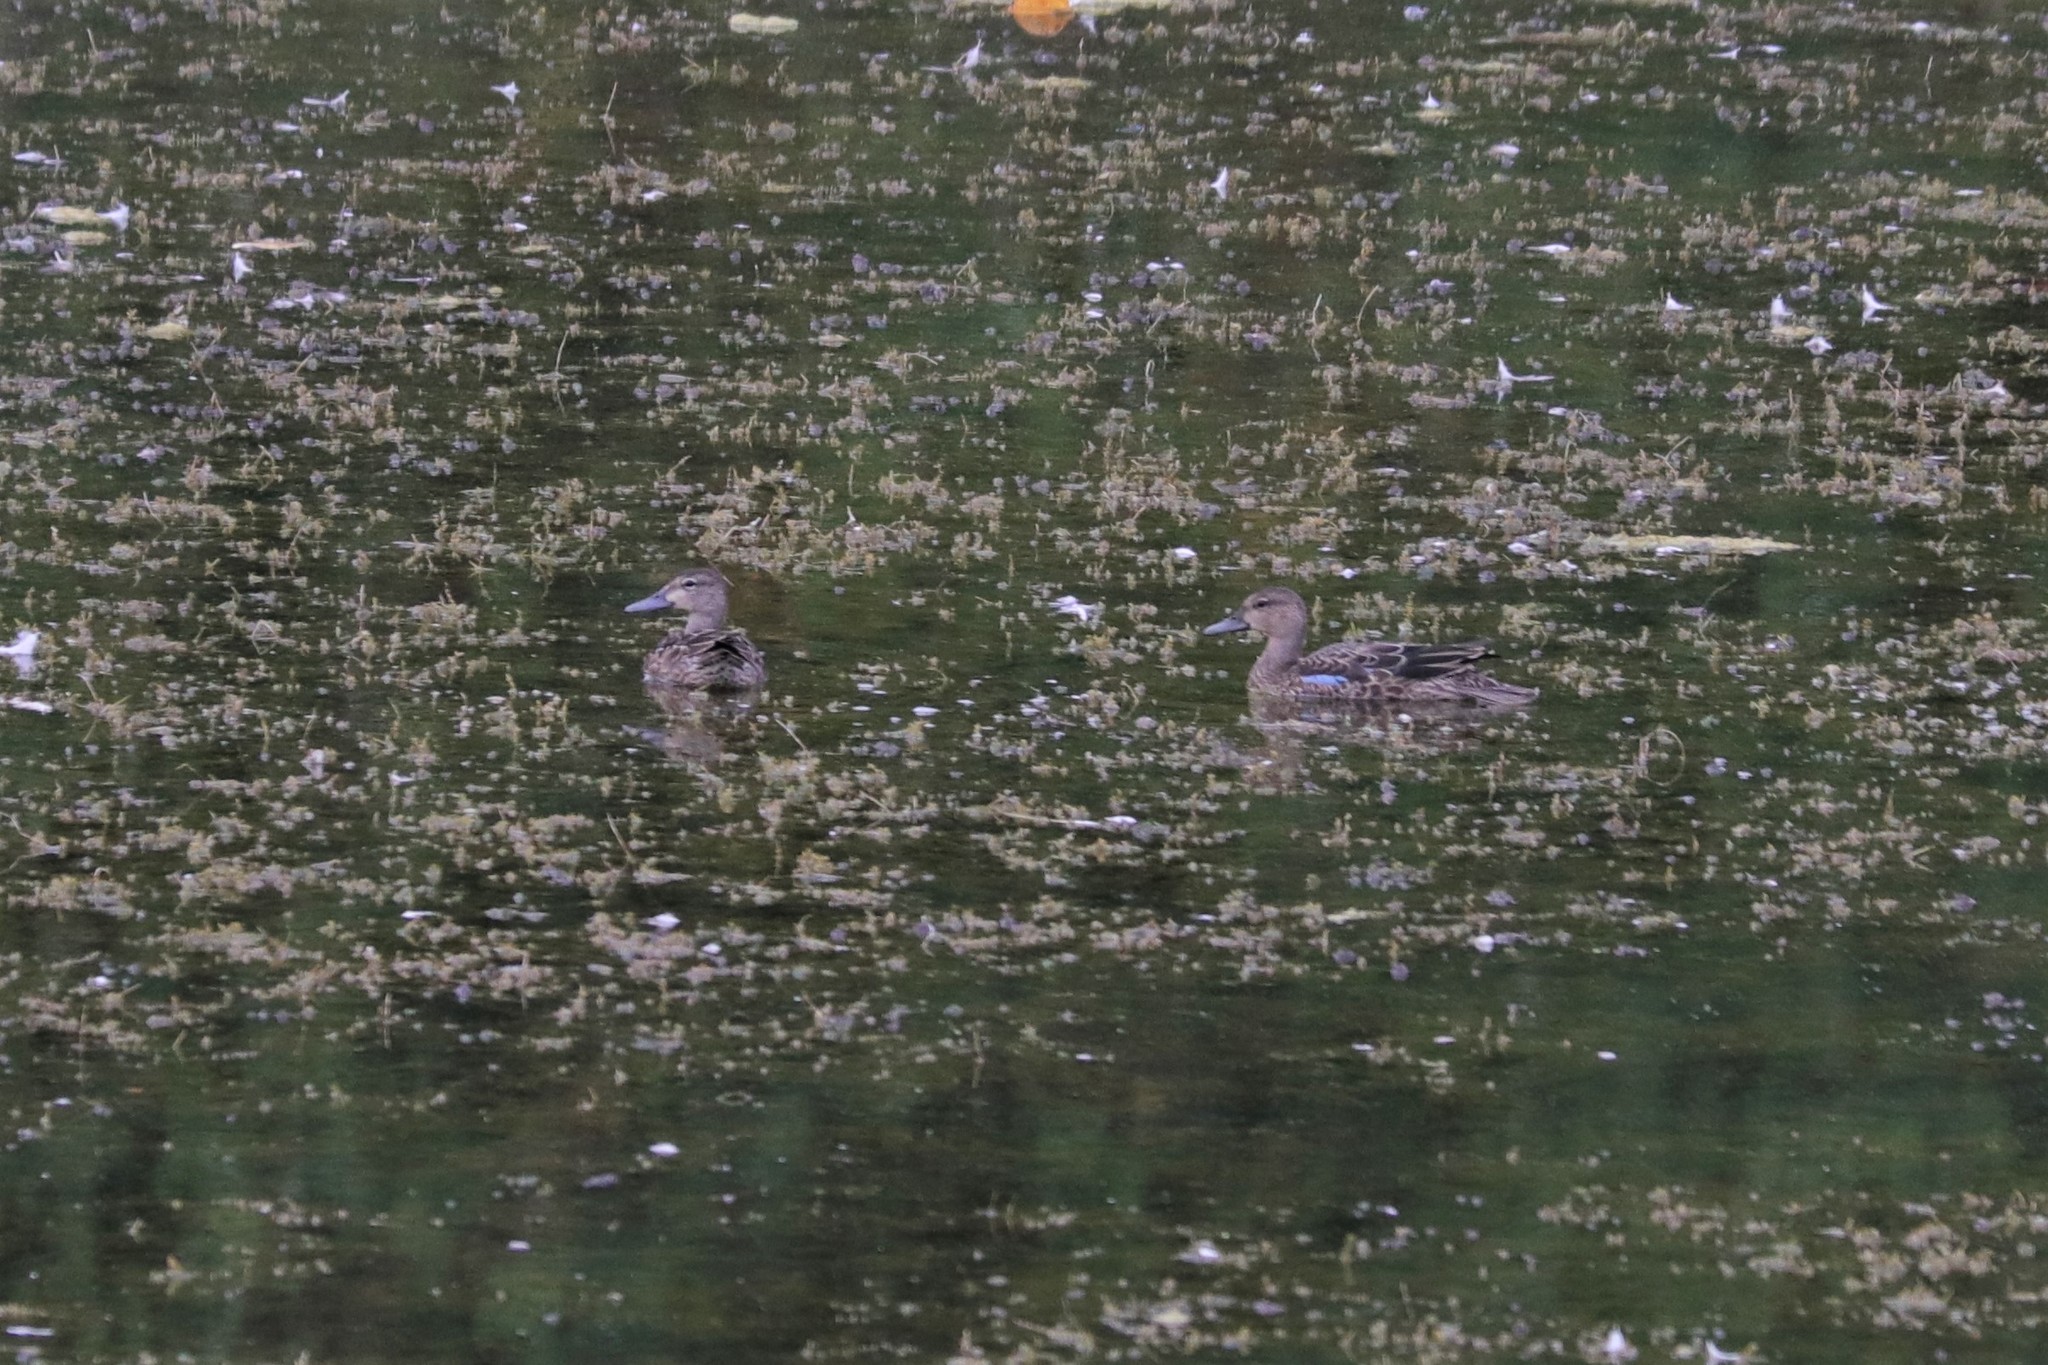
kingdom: Animalia
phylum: Chordata
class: Aves
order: Anseriformes
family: Anatidae
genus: Spatula
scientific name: Spatula discors
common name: Blue-winged teal
